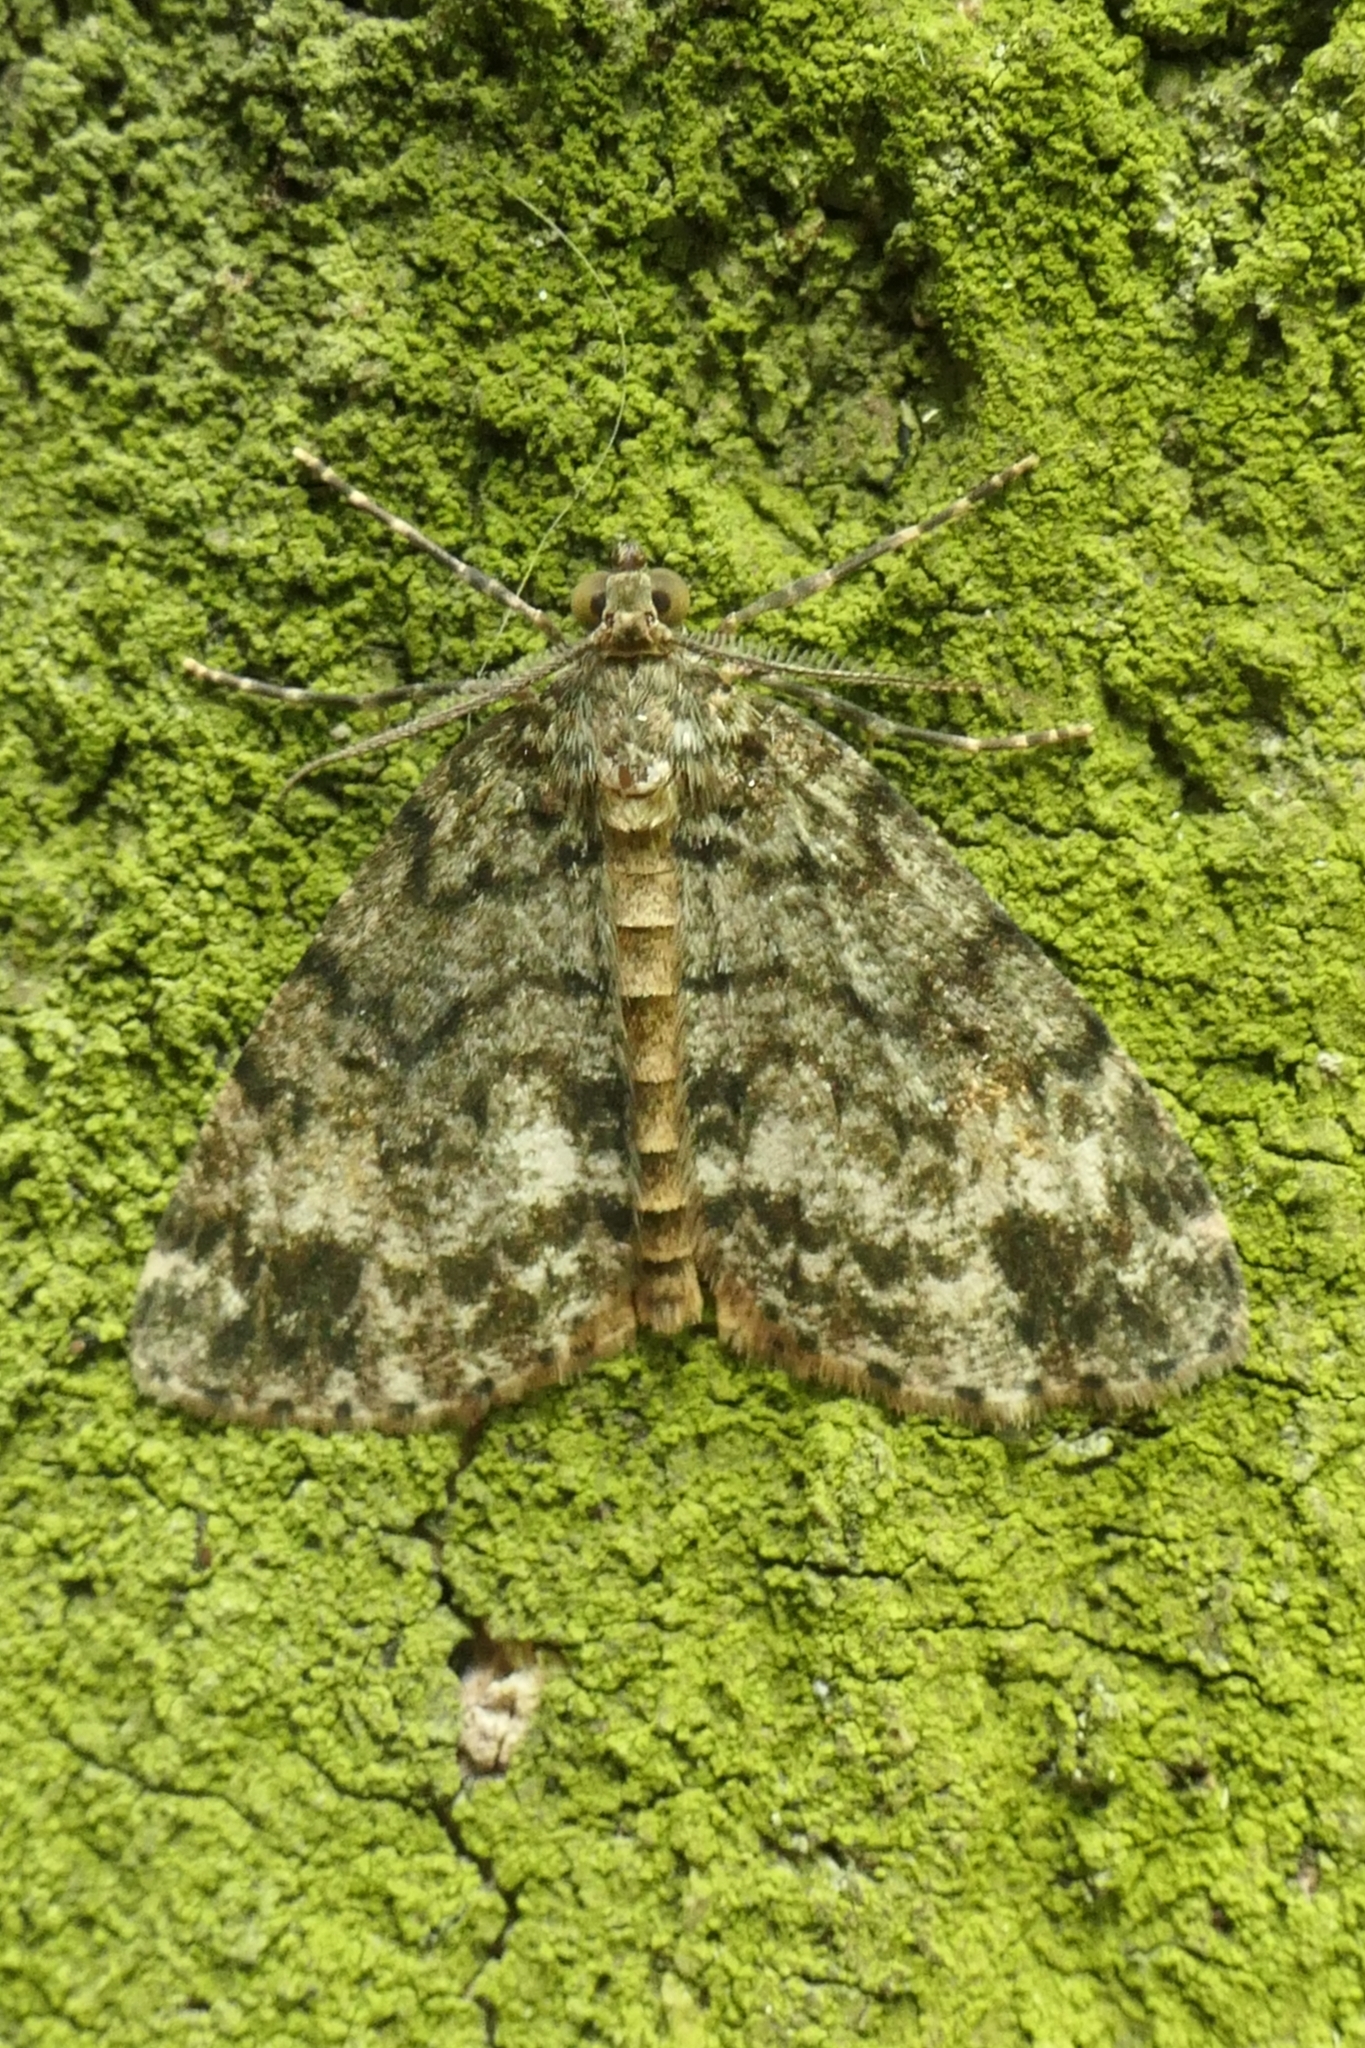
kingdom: Animalia
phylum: Arthropoda
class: Insecta
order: Lepidoptera
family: Geometridae
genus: Pseudocoremia
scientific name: Pseudocoremia indistincta
